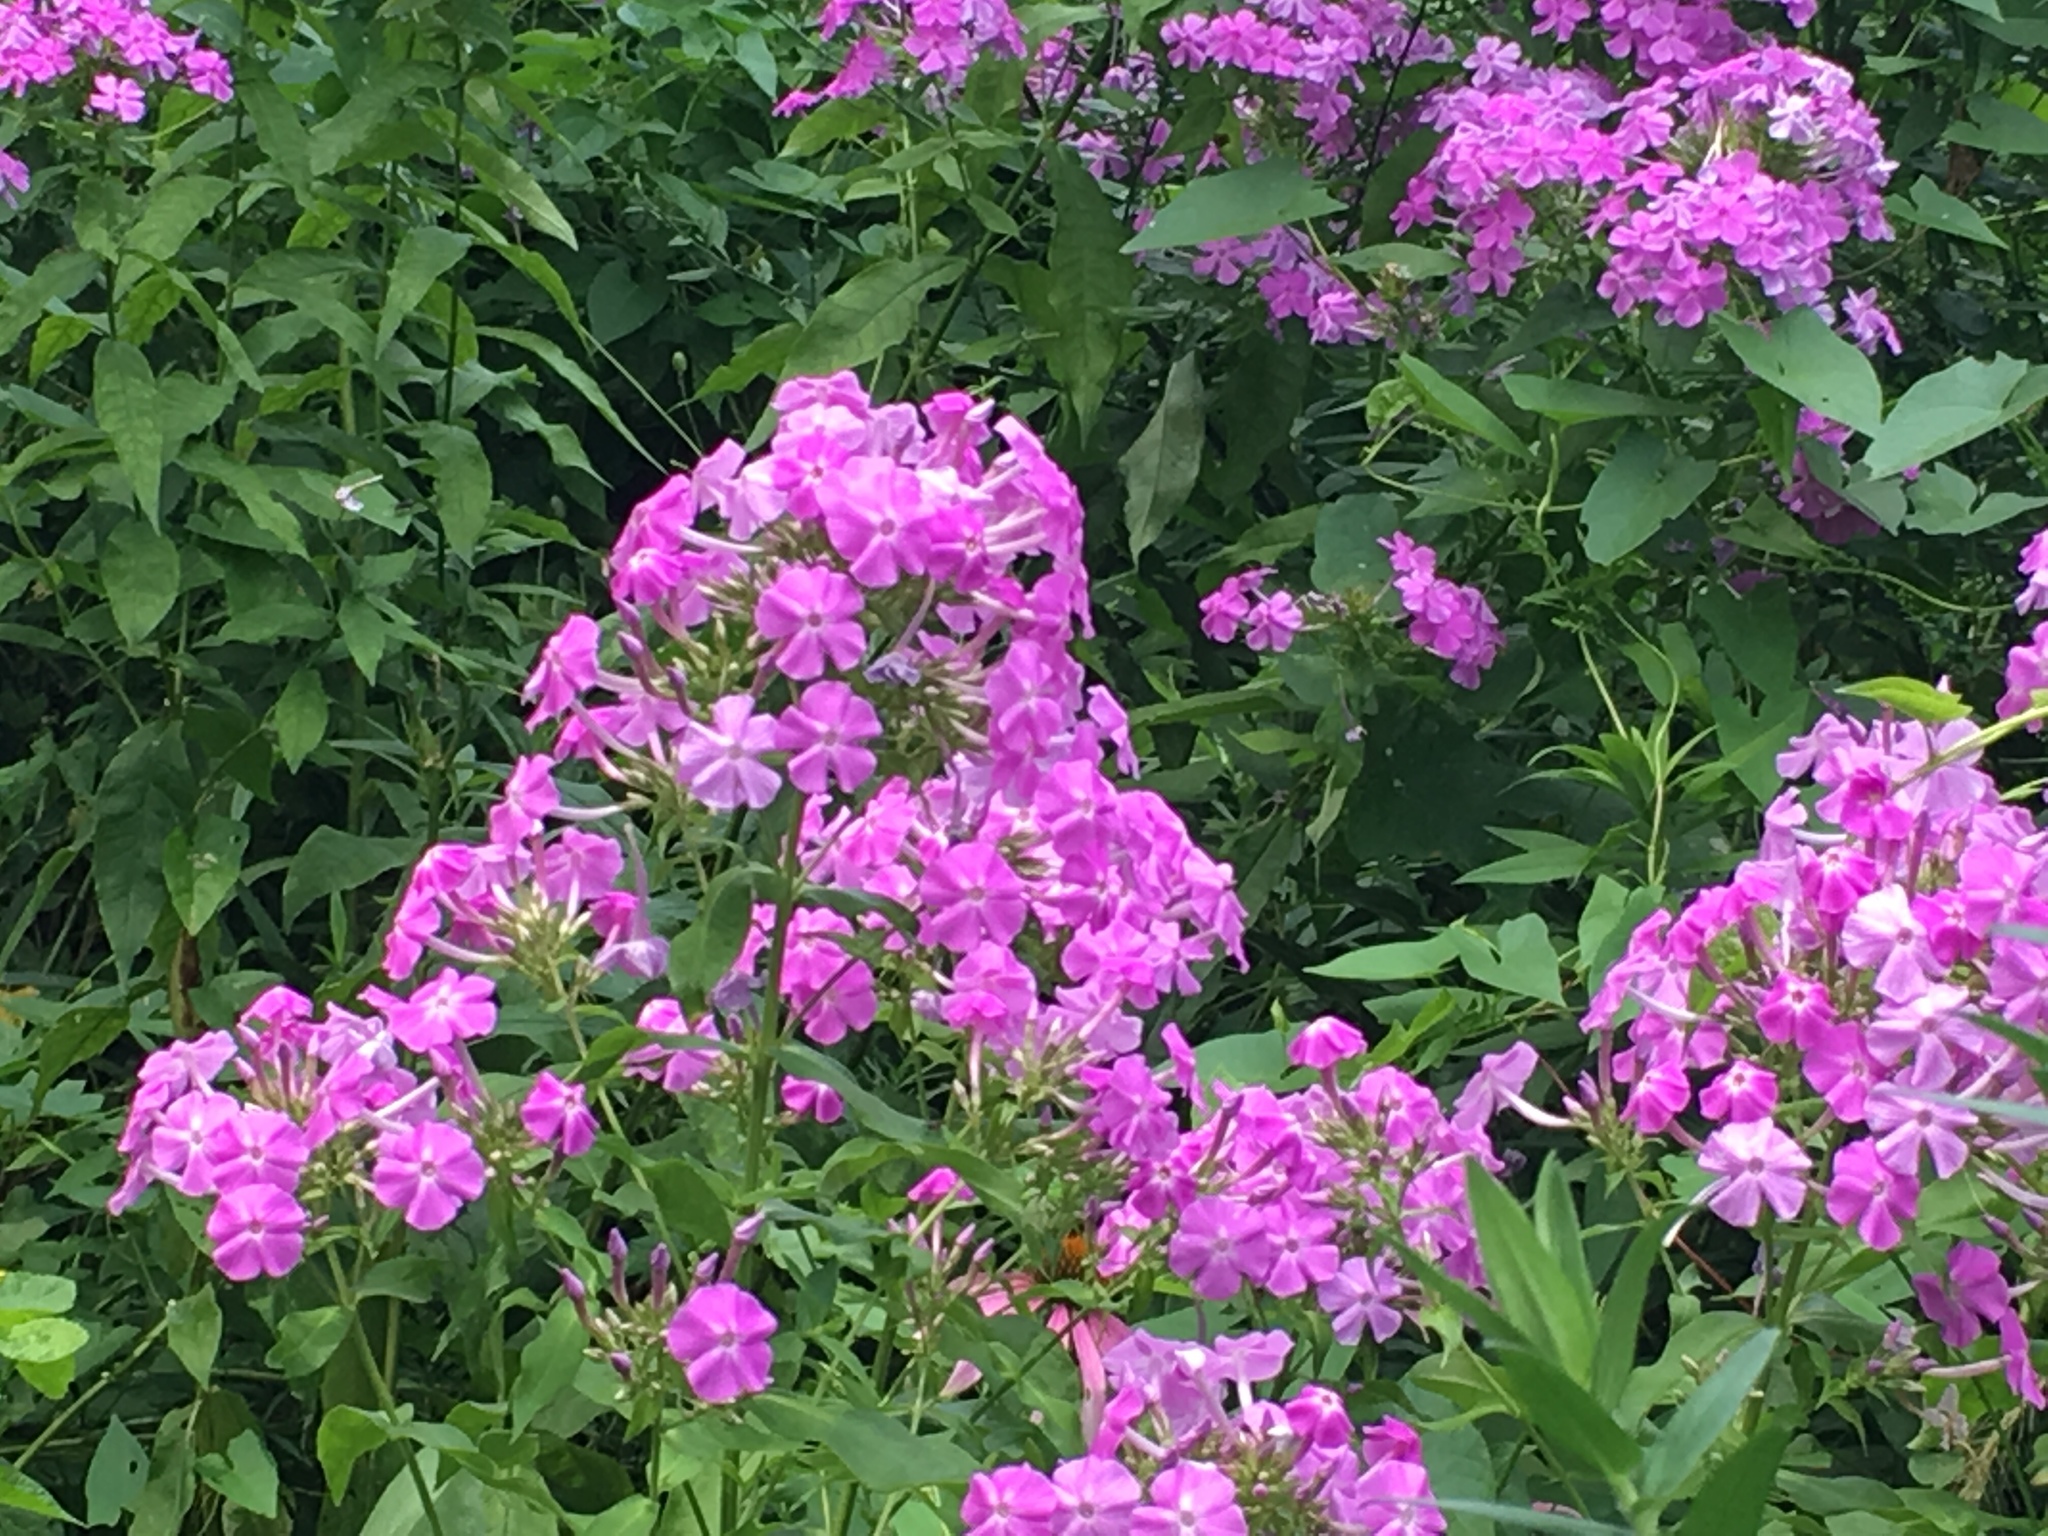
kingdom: Plantae
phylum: Tracheophyta
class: Magnoliopsida
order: Ericales
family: Polemoniaceae
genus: Phlox
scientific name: Phlox paniculata
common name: Fall phlox
